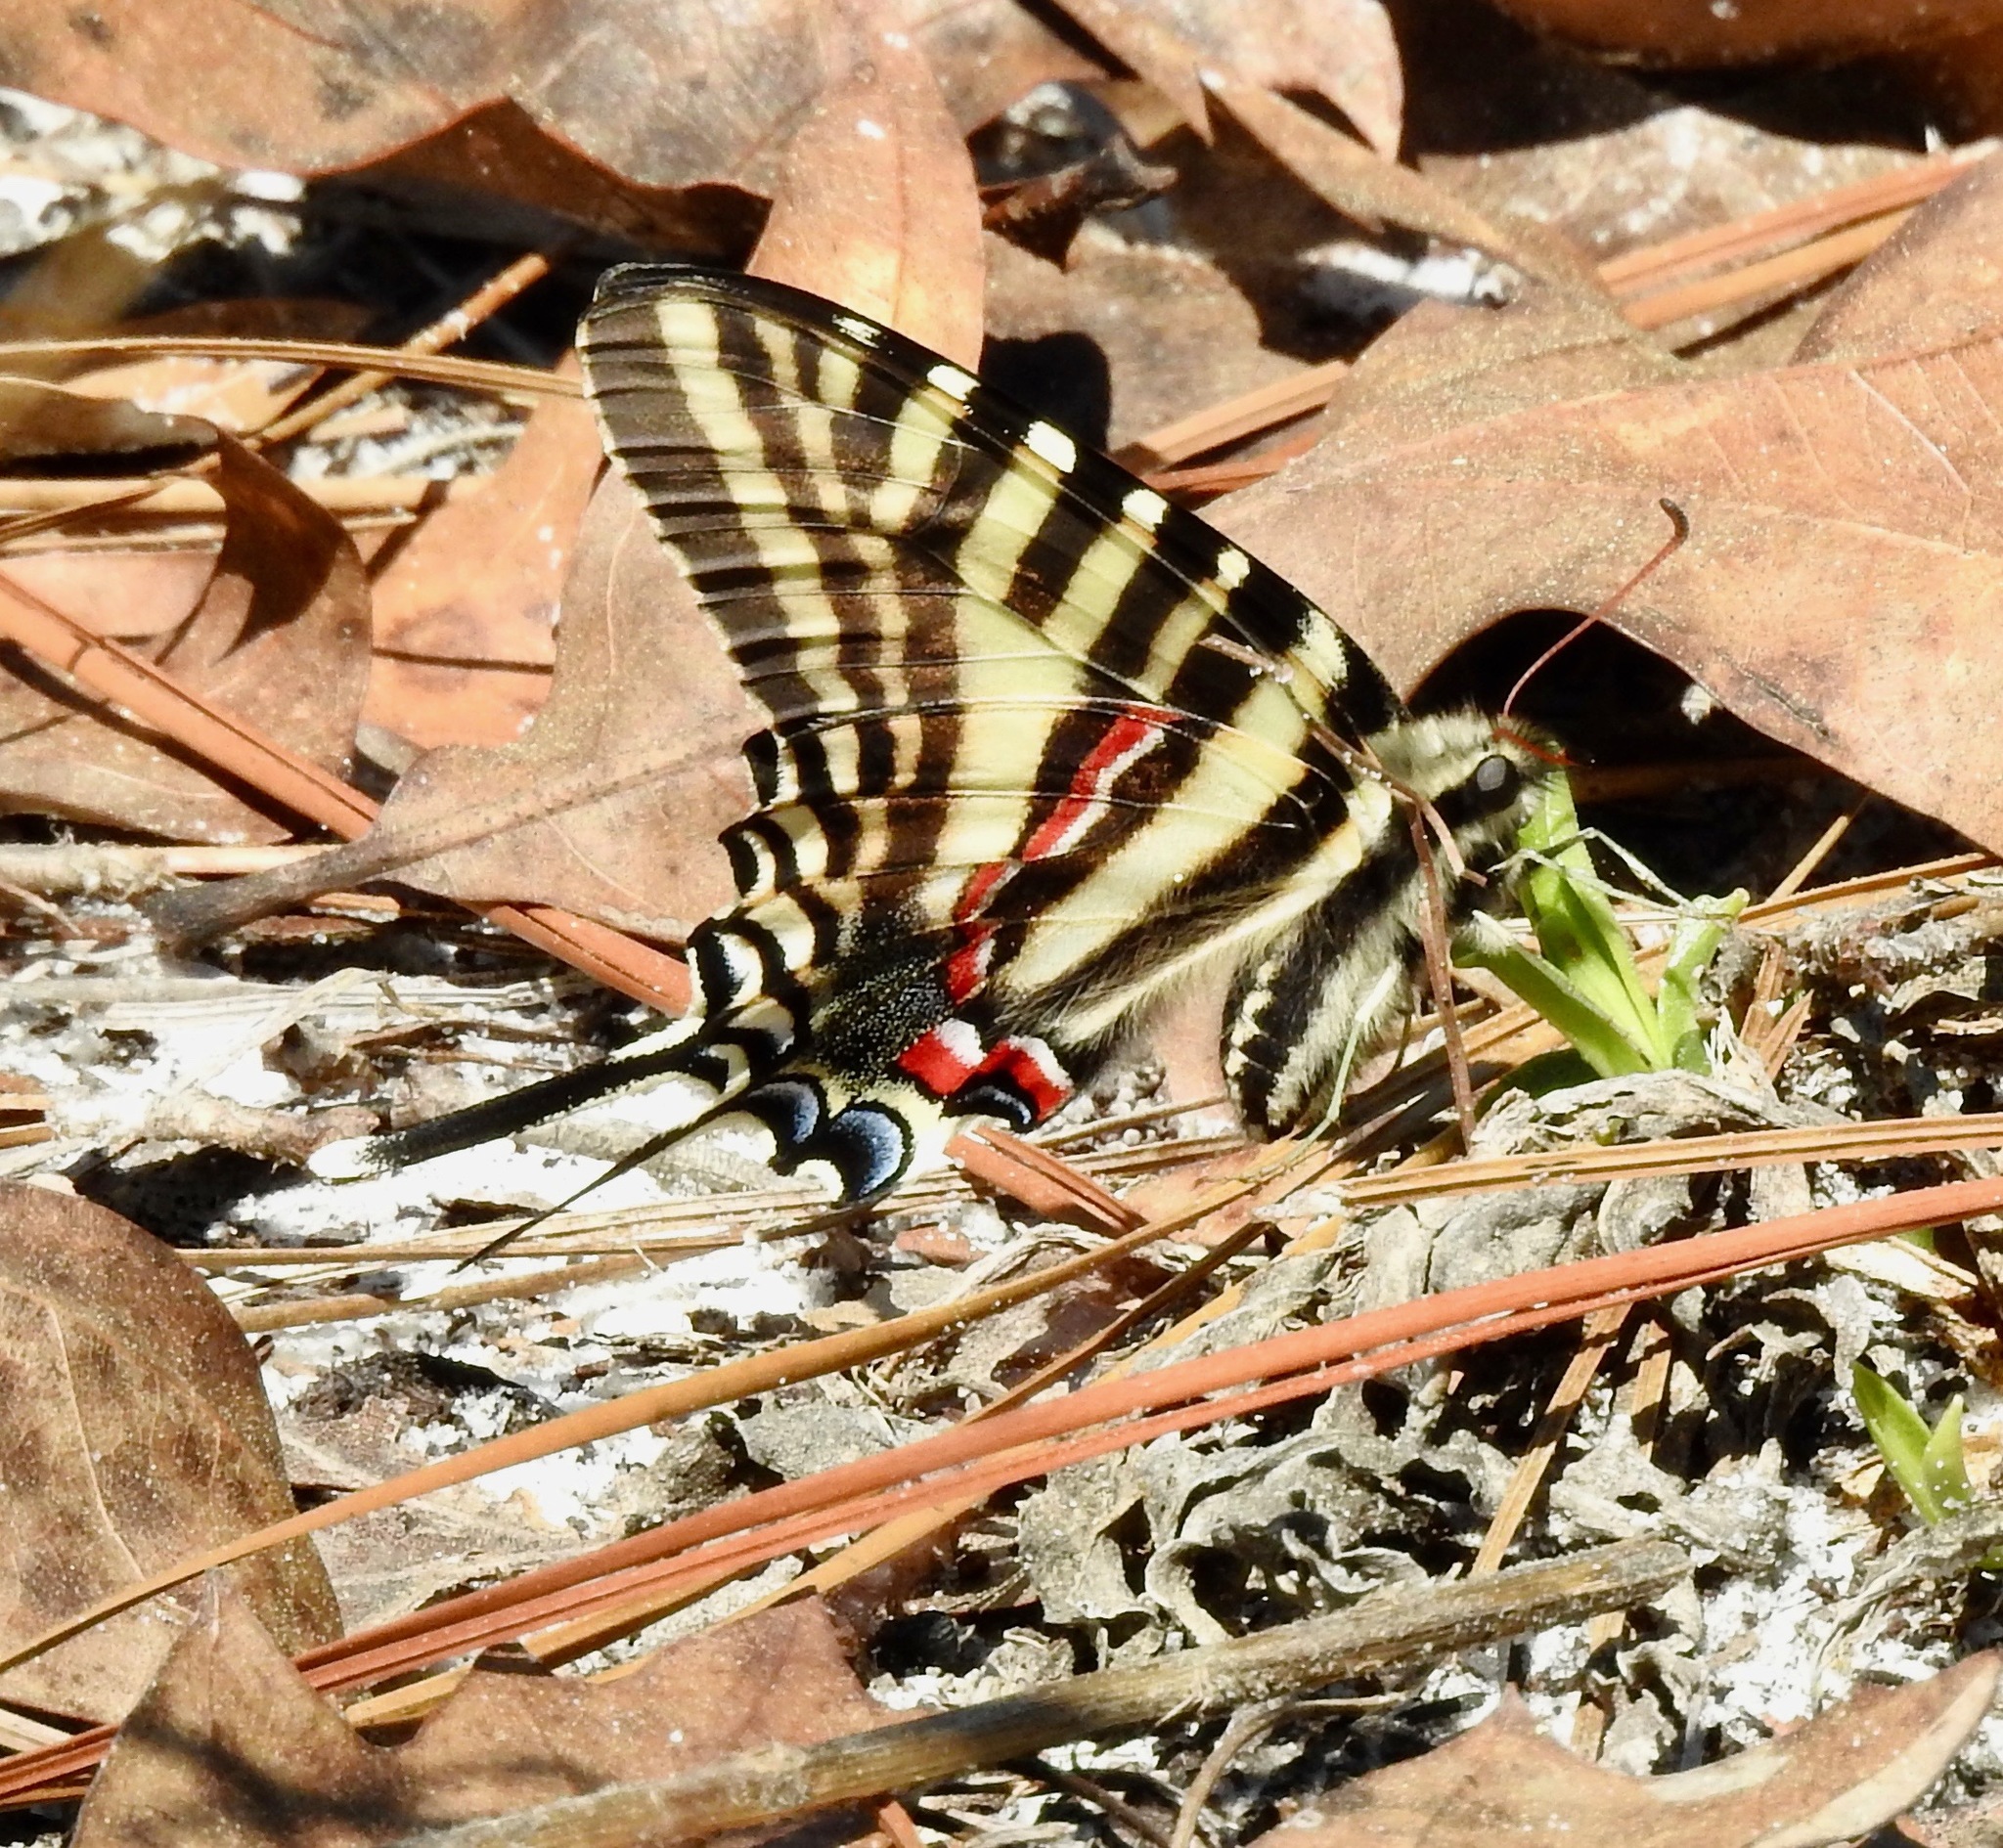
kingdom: Animalia
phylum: Arthropoda
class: Insecta
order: Lepidoptera
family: Papilionidae
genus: Protographium
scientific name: Protographium marcellus
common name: Zebra swallowtail
